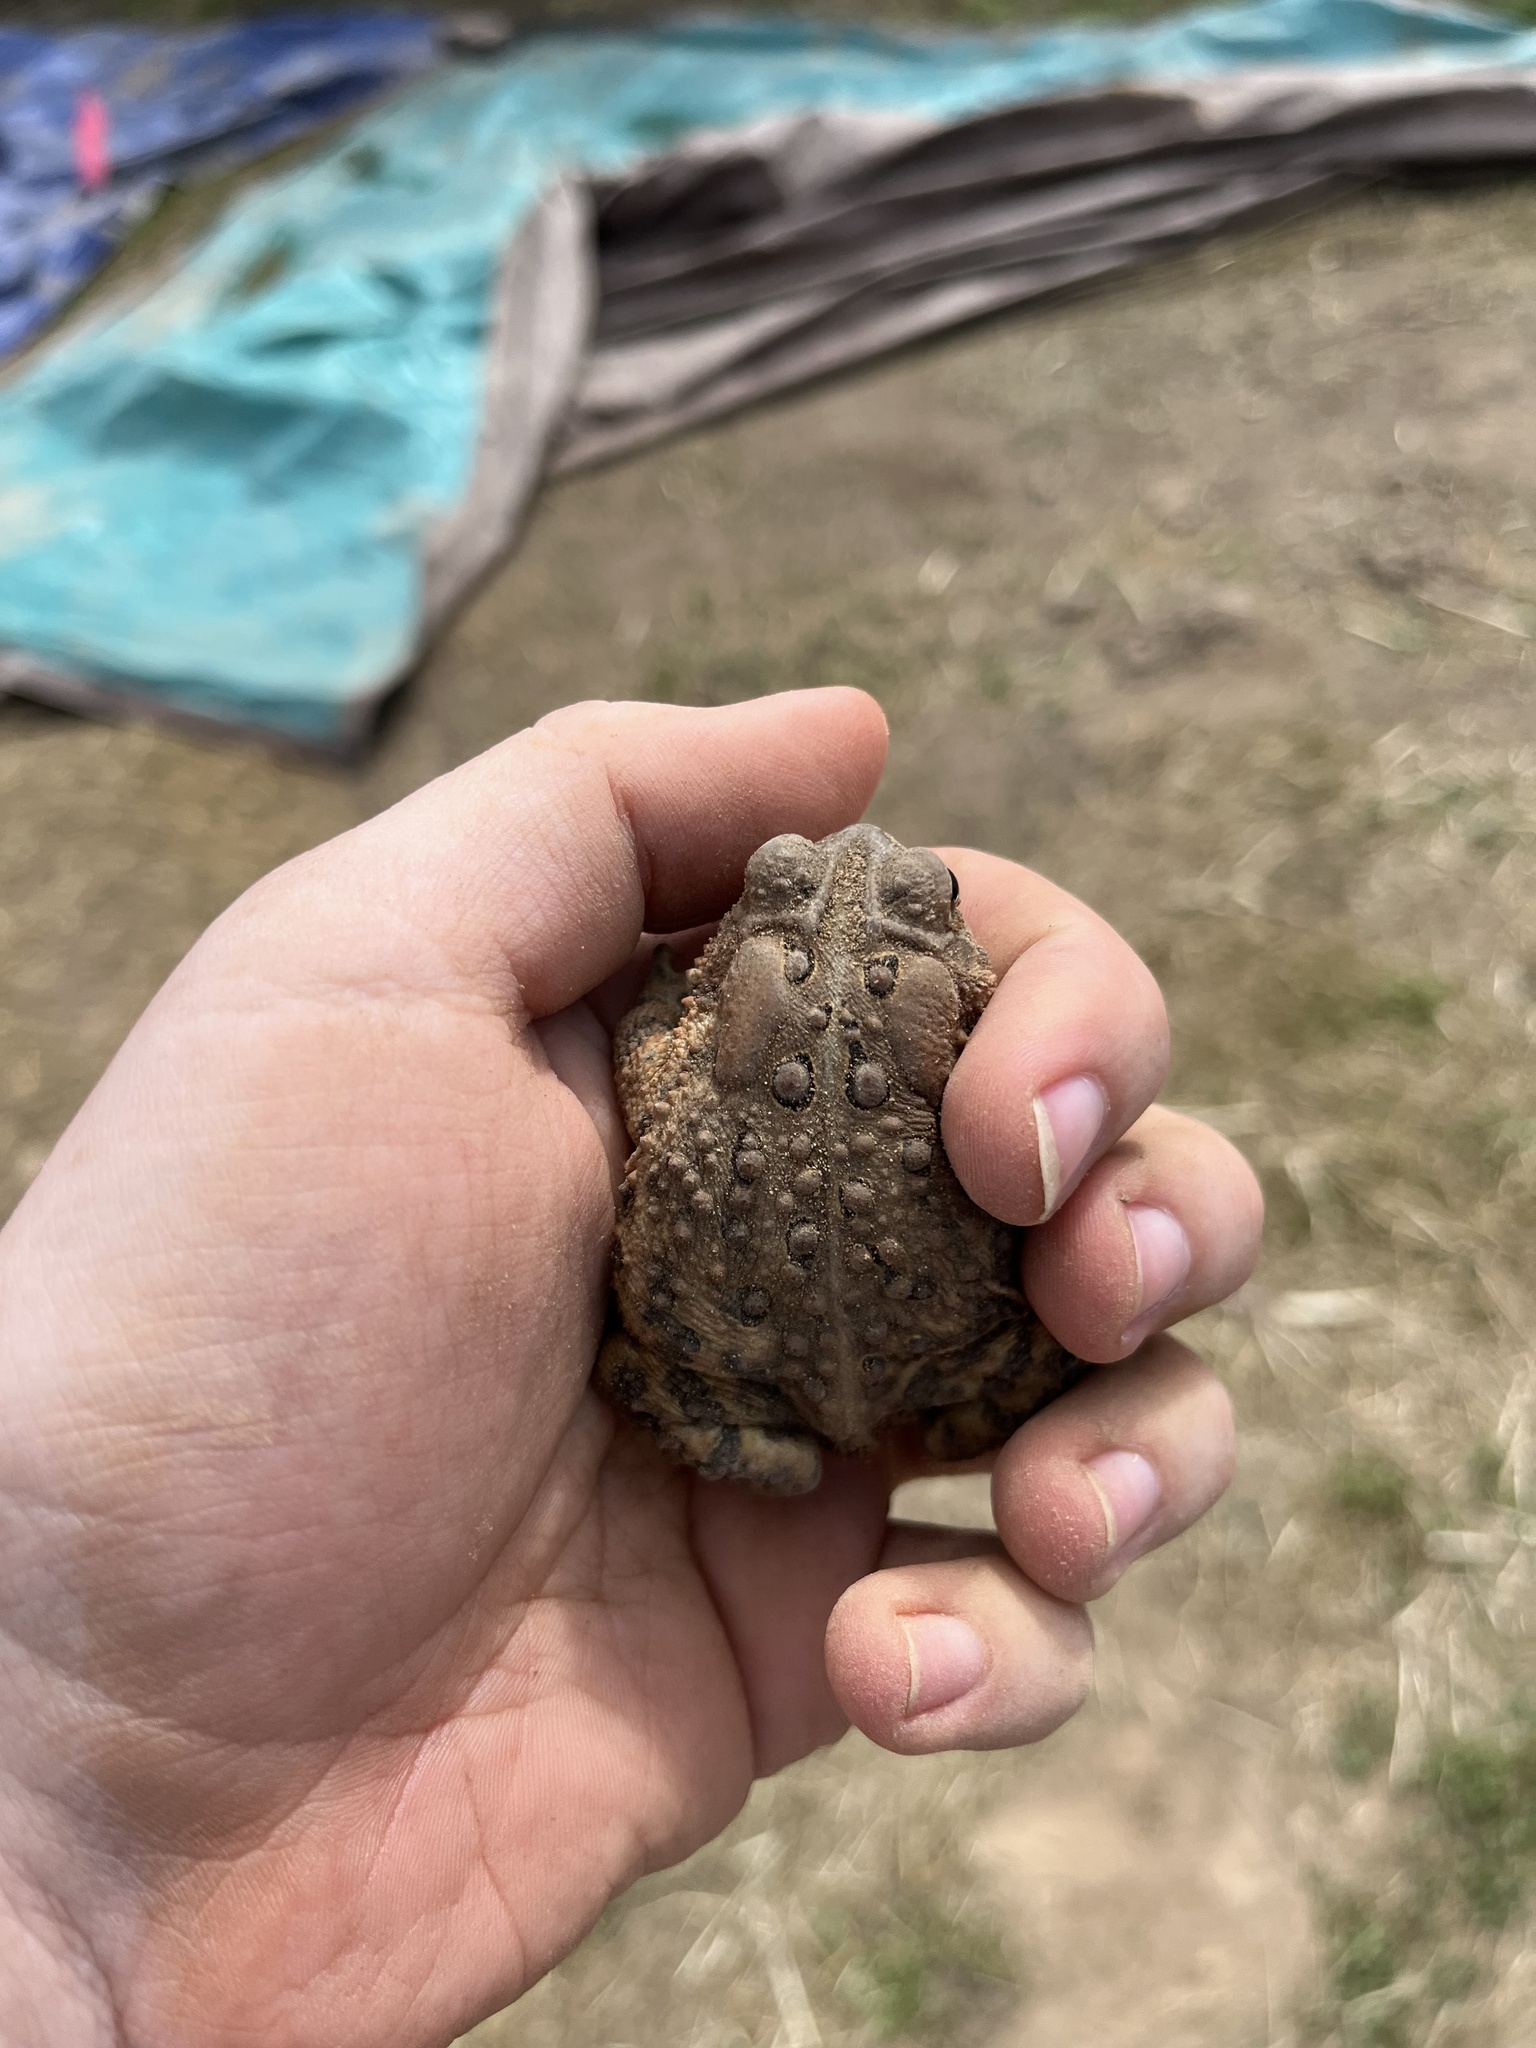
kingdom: Animalia
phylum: Chordata
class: Amphibia
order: Anura
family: Bufonidae
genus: Anaxyrus
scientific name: Anaxyrus americanus
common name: American toad
